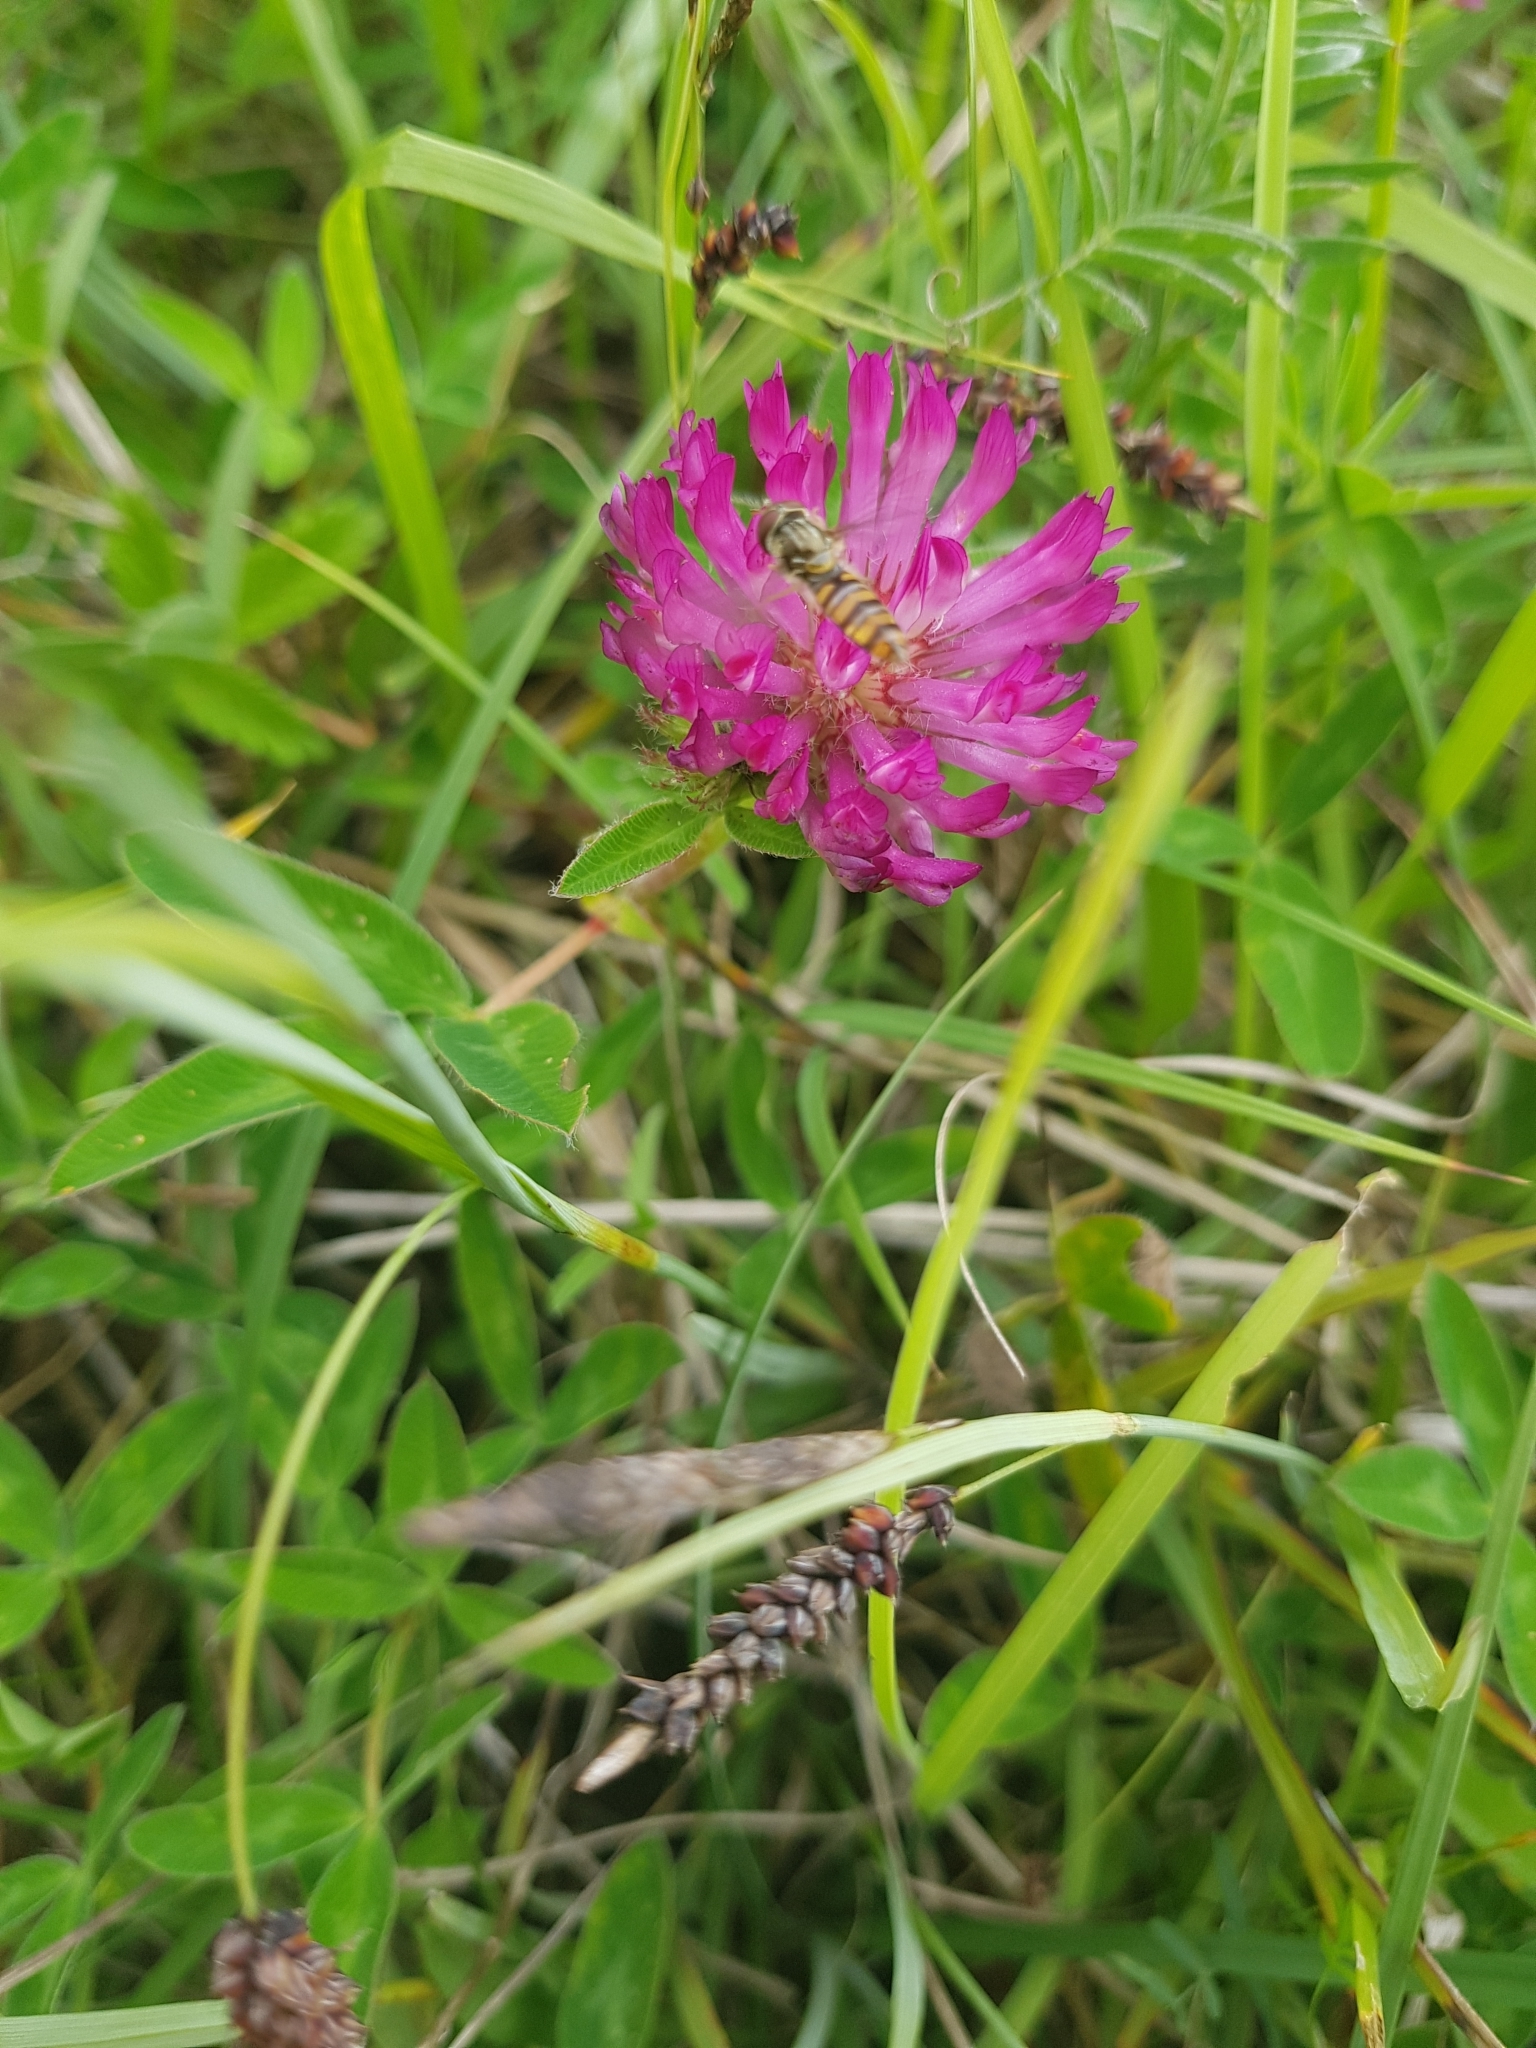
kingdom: Animalia
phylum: Arthropoda
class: Insecta
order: Diptera
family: Syrphidae
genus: Episyrphus
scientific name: Episyrphus balteatus
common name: Marmalade hoverfly
